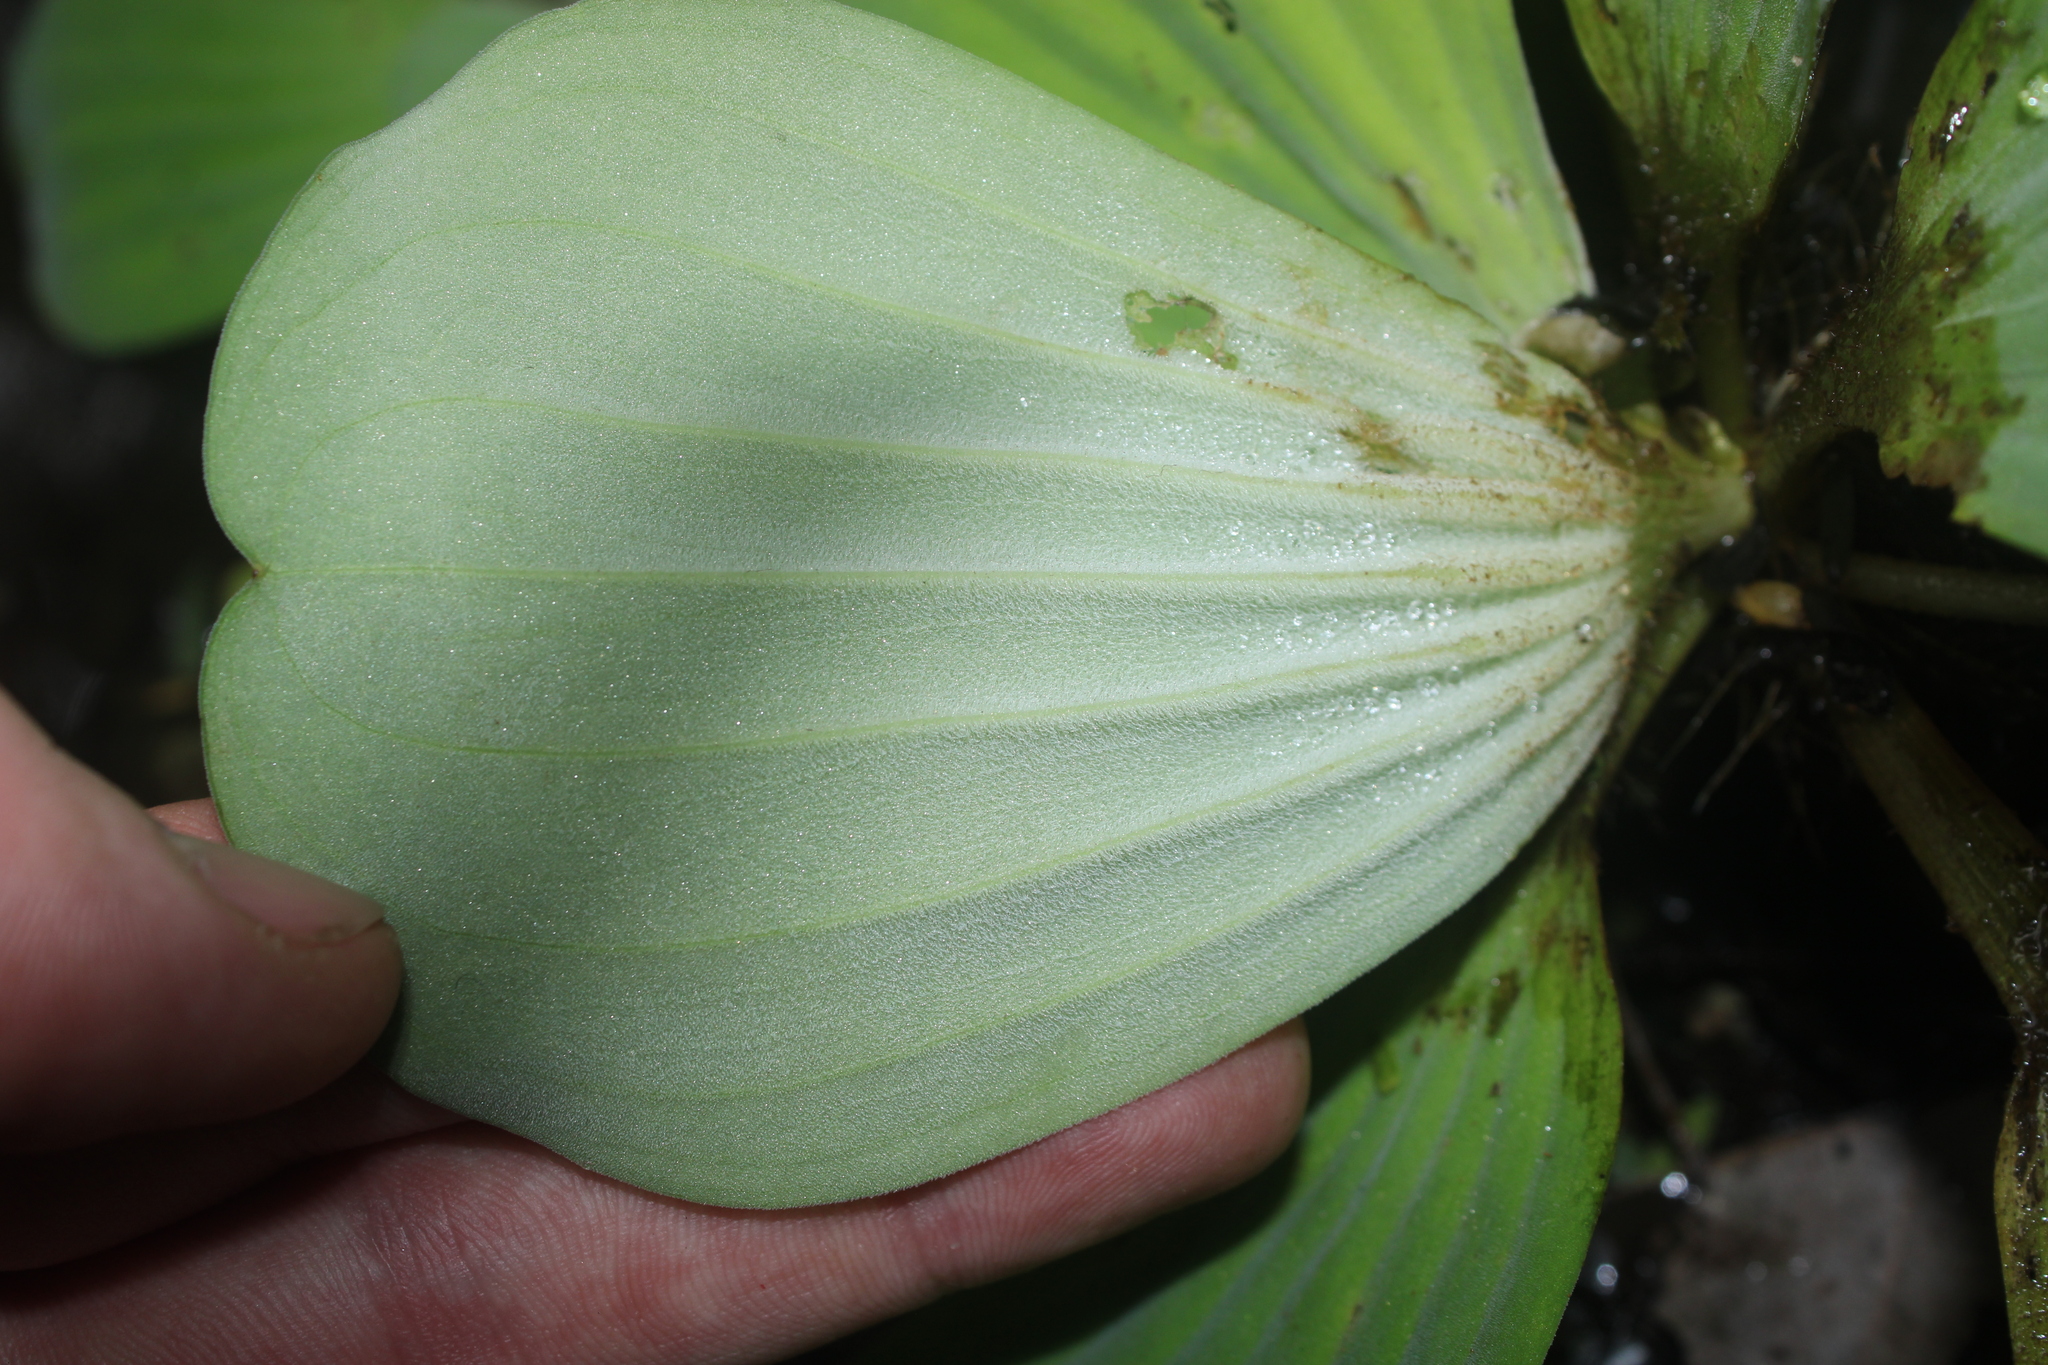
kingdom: Plantae
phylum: Tracheophyta
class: Liliopsida
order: Alismatales
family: Araceae
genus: Pistia
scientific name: Pistia stratiotes
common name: Water lettuce
